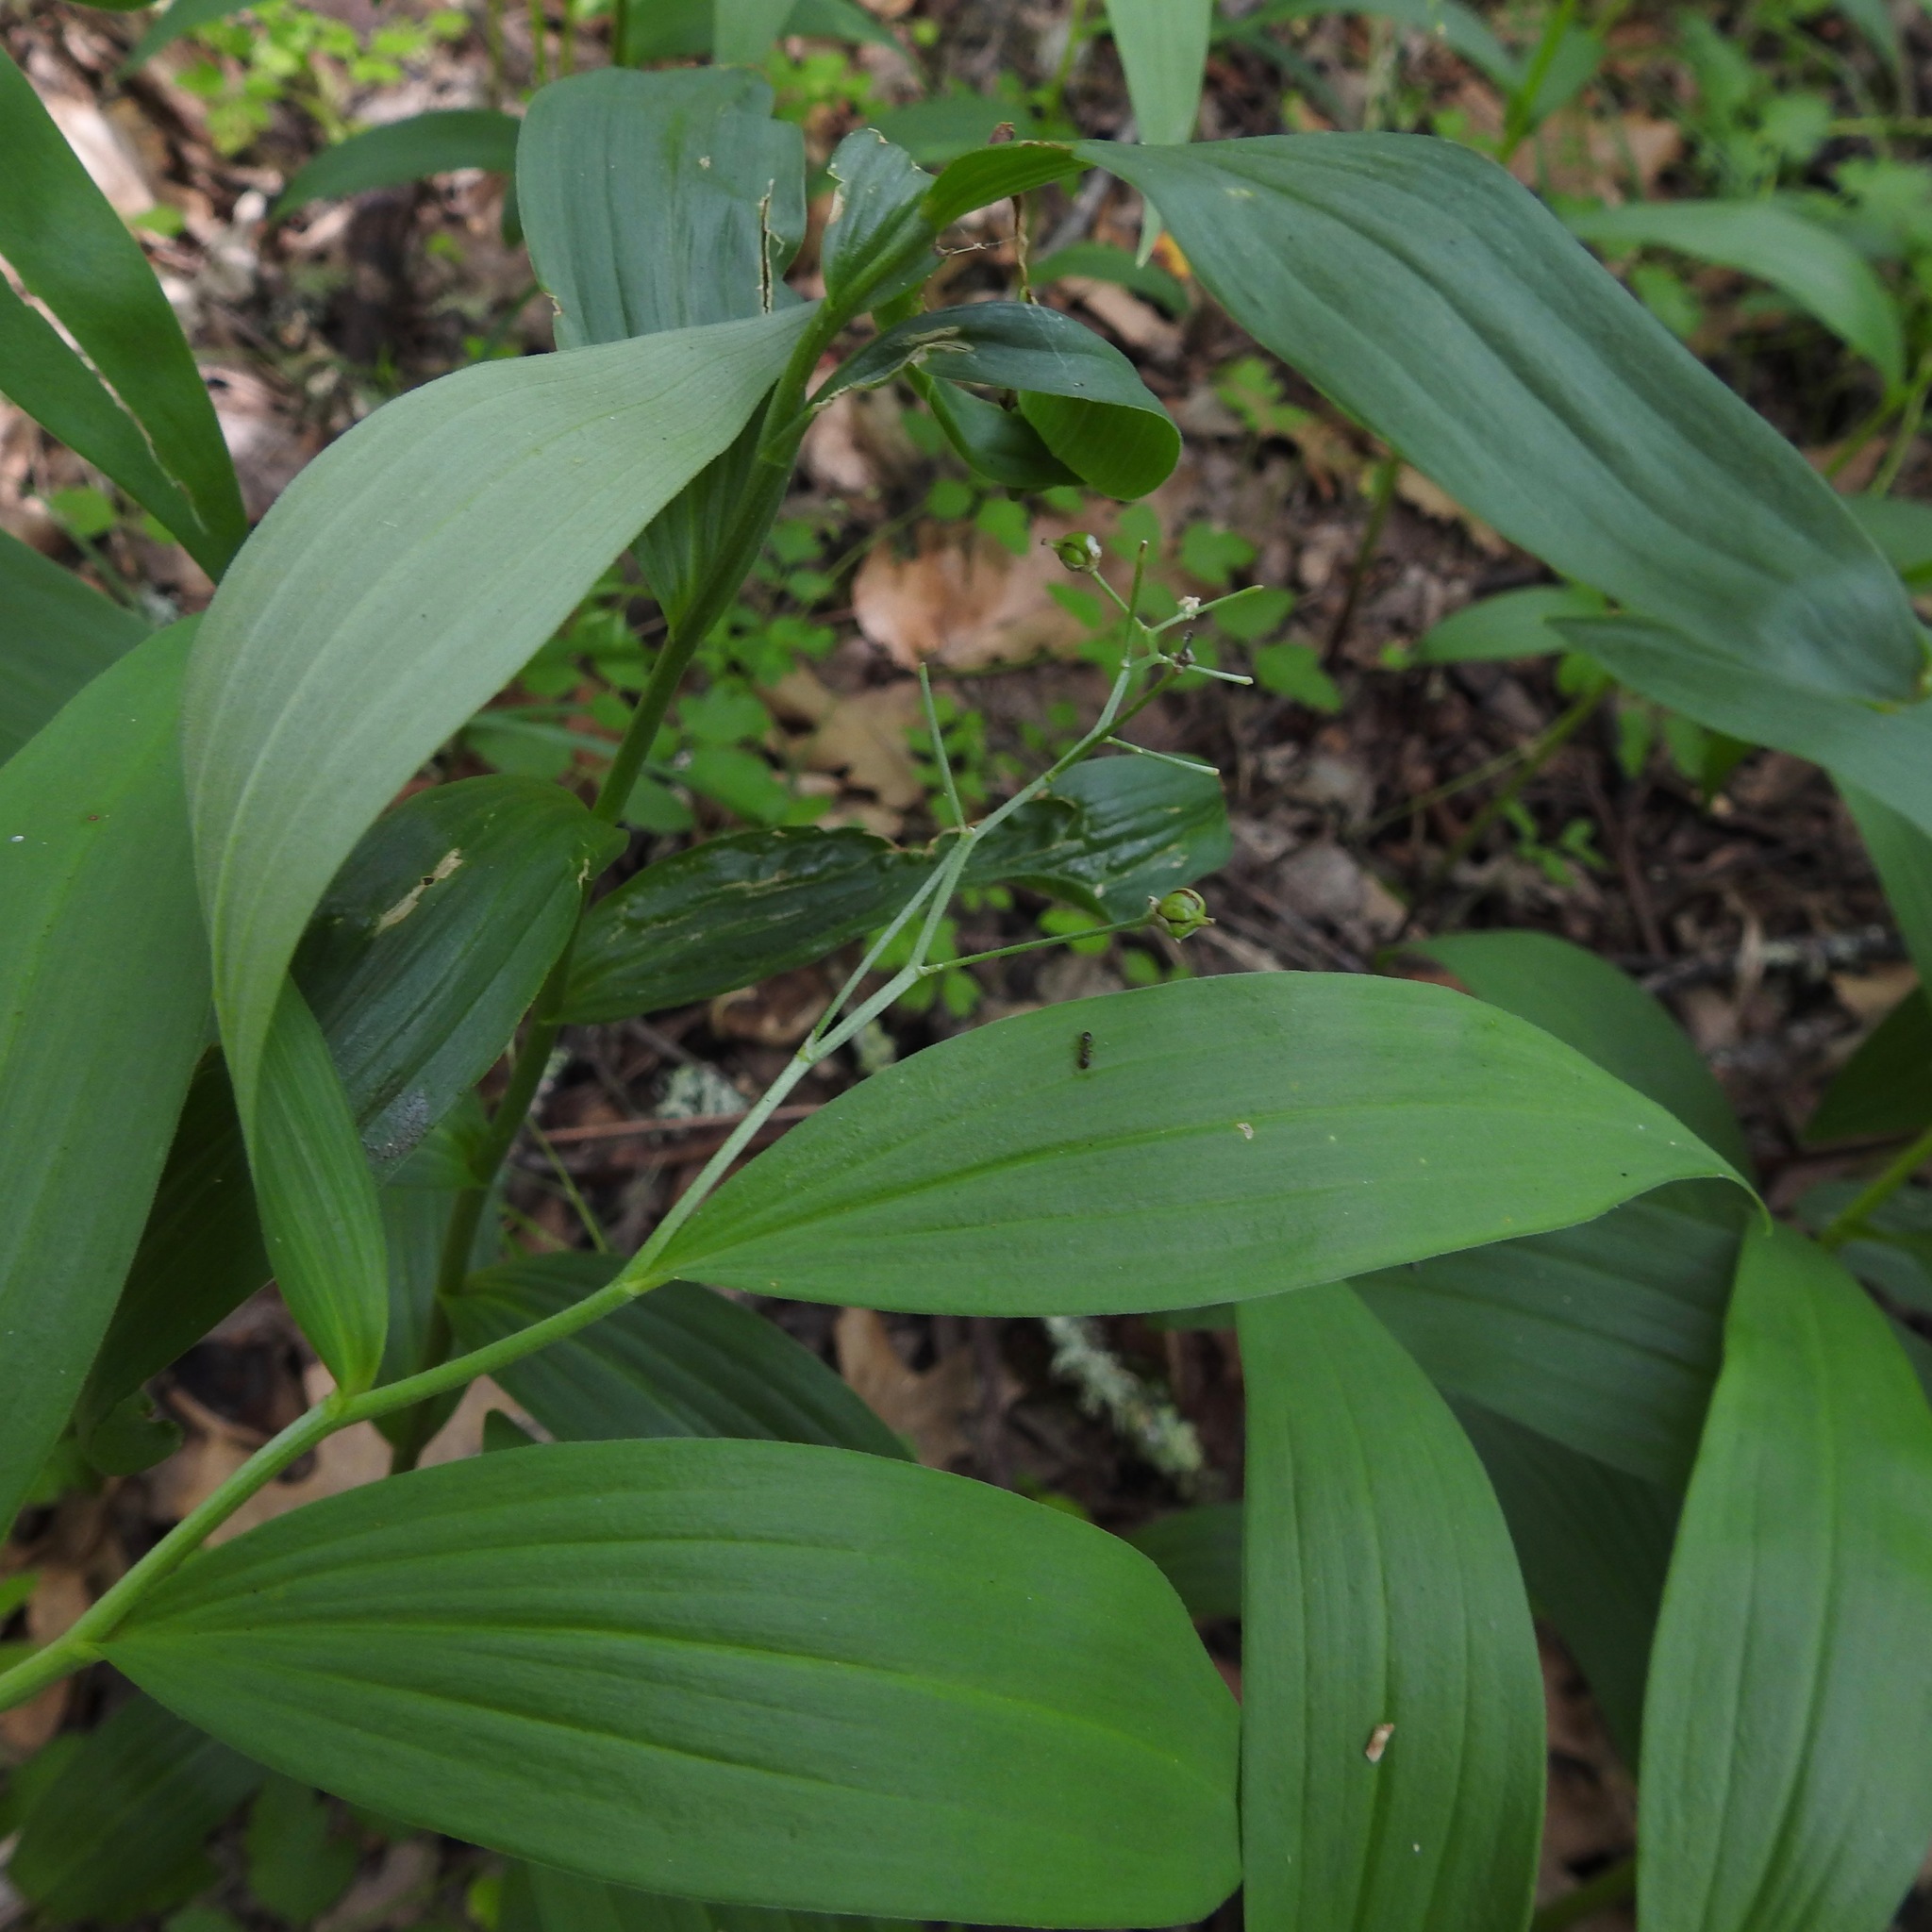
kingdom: Plantae
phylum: Tracheophyta
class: Liliopsida
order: Asparagales
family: Asparagaceae
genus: Maianthemum
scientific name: Maianthemum stellatum
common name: Little false solomon's seal
